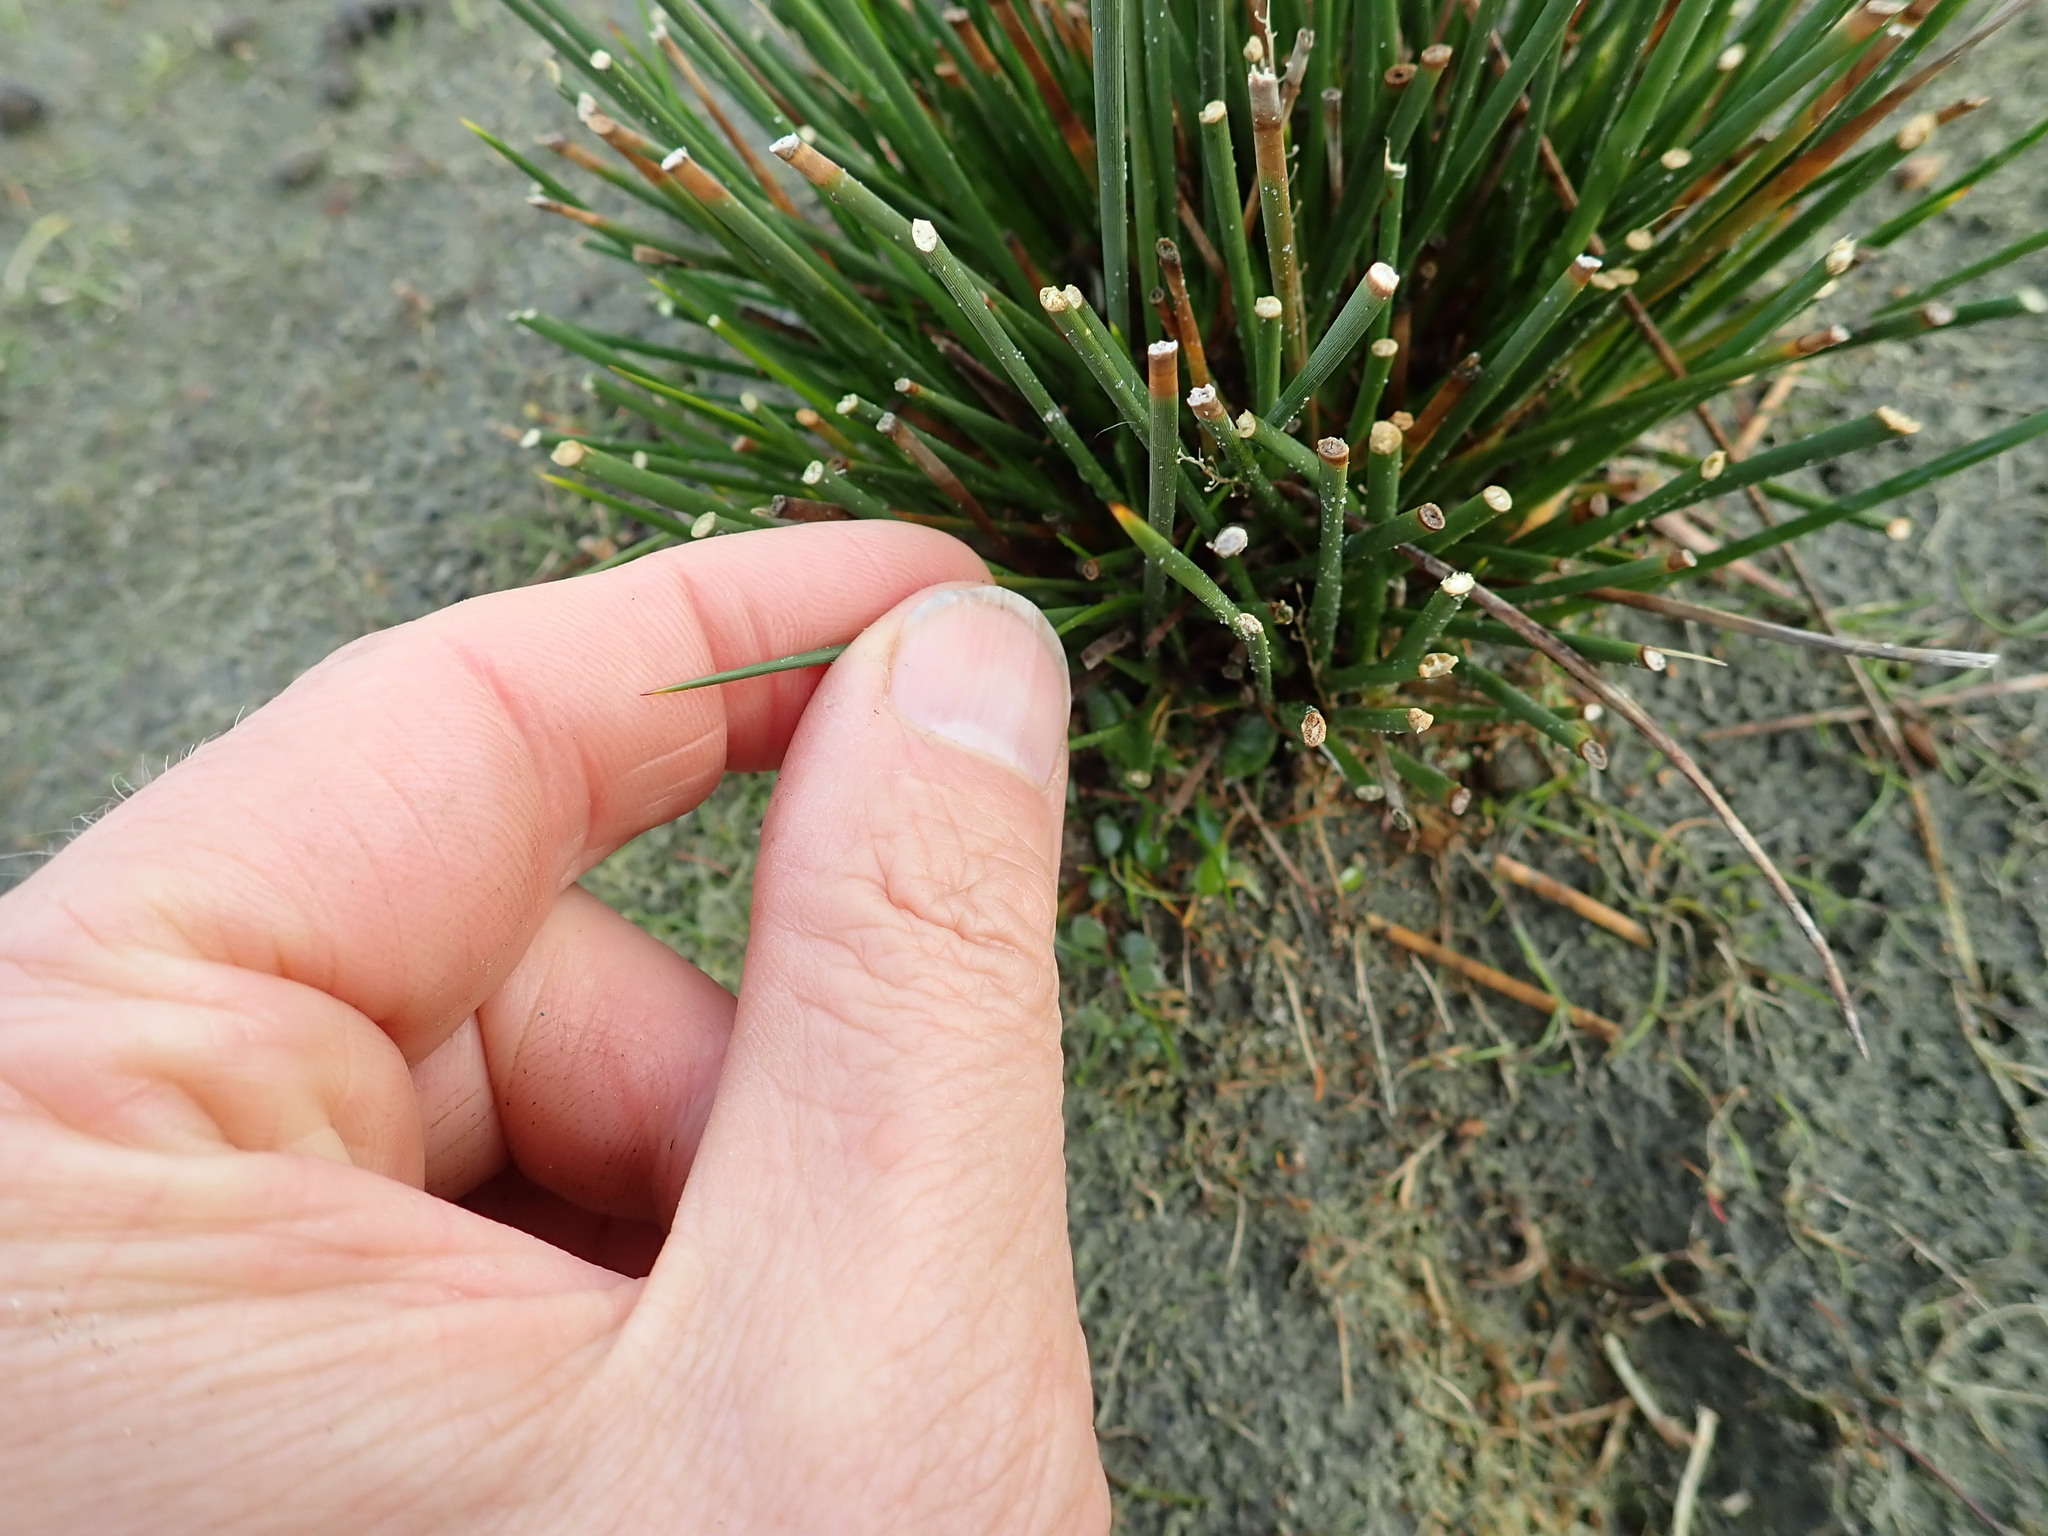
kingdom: Plantae
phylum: Tracheophyta
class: Liliopsida
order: Poales
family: Juncaceae
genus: Juncus
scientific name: Juncus acutus
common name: Sharp rush
